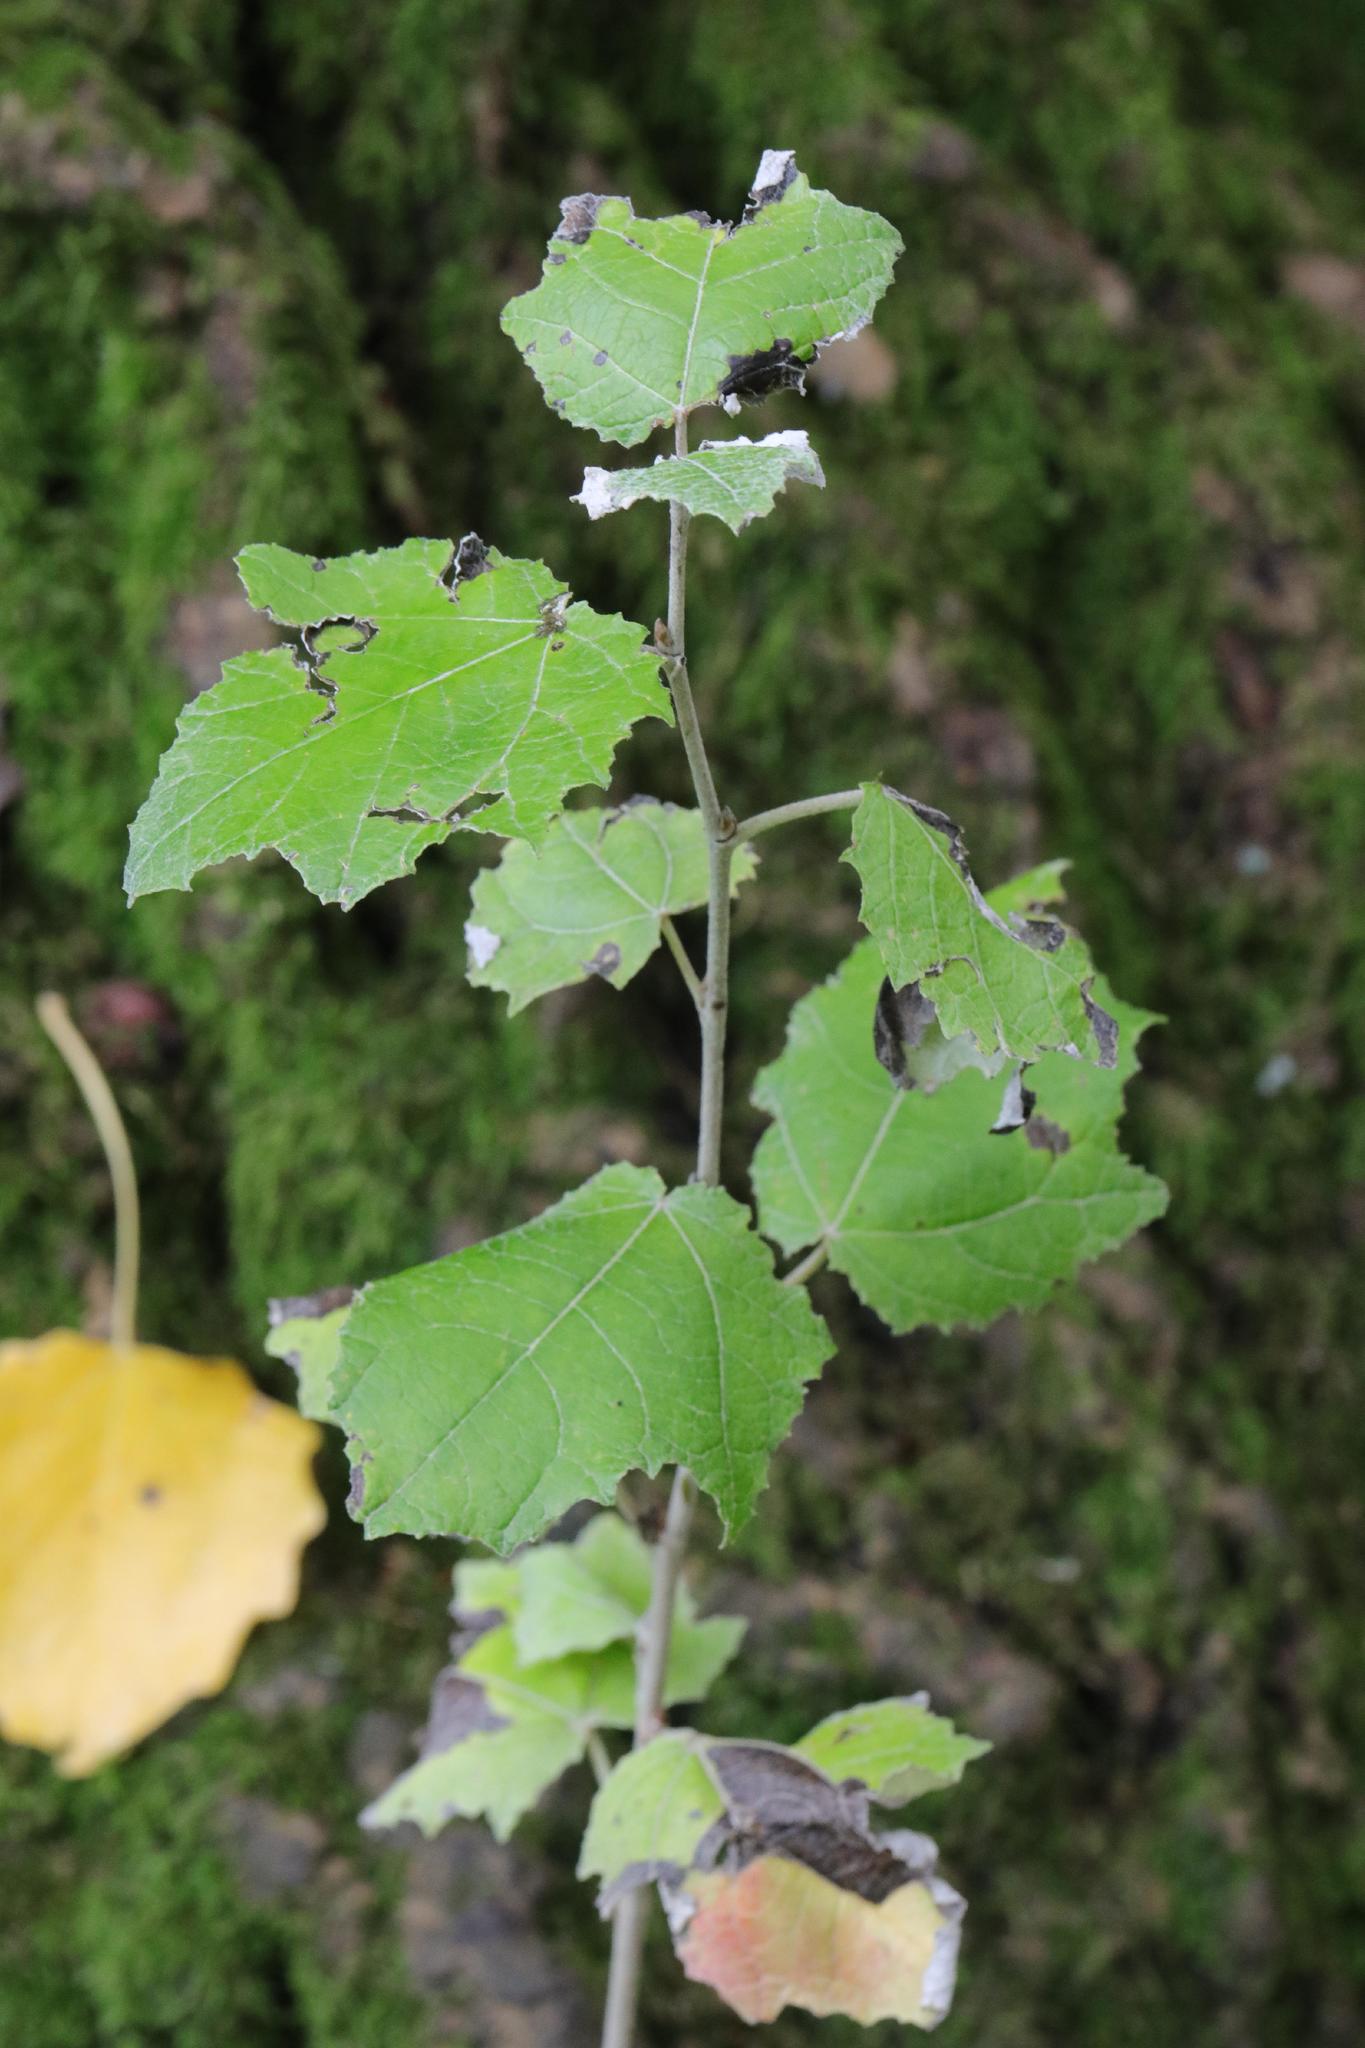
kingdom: Plantae
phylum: Tracheophyta
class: Magnoliopsida
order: Malpighiales
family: Salicaceae
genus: Populus
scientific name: Populus alba
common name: White poplar
